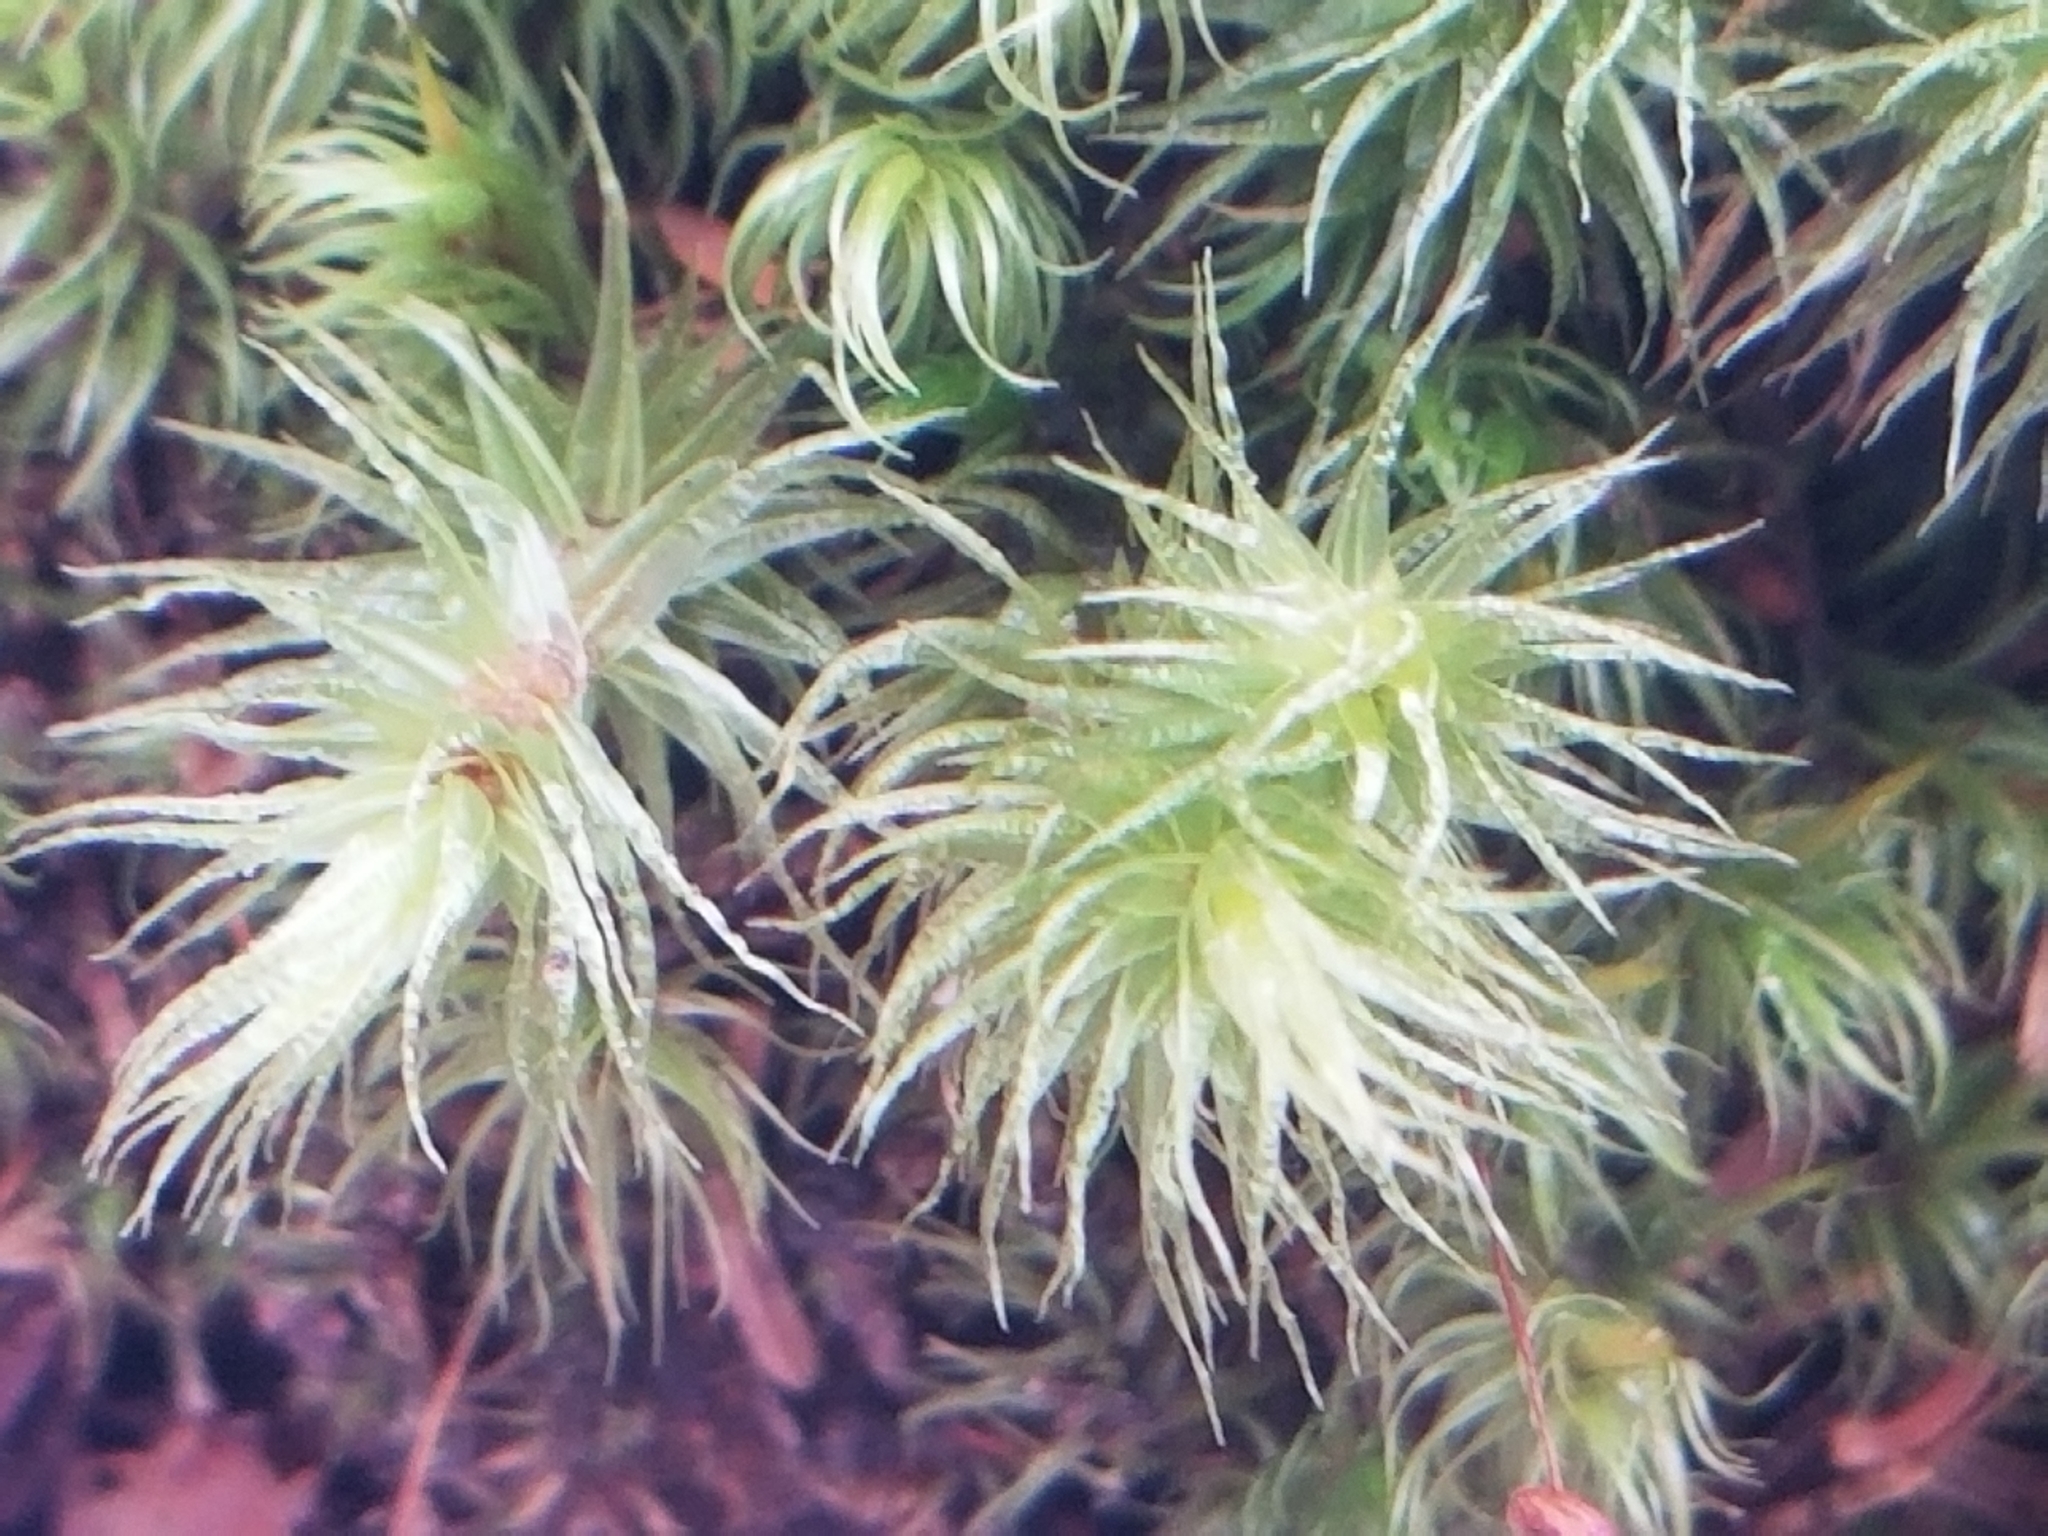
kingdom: Plantae
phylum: Bryophyta
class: Bryopsida
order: Dicranales
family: Dicranaceae
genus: Dicranum
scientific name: Dicranum polysetum
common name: Rugose fork-moss
